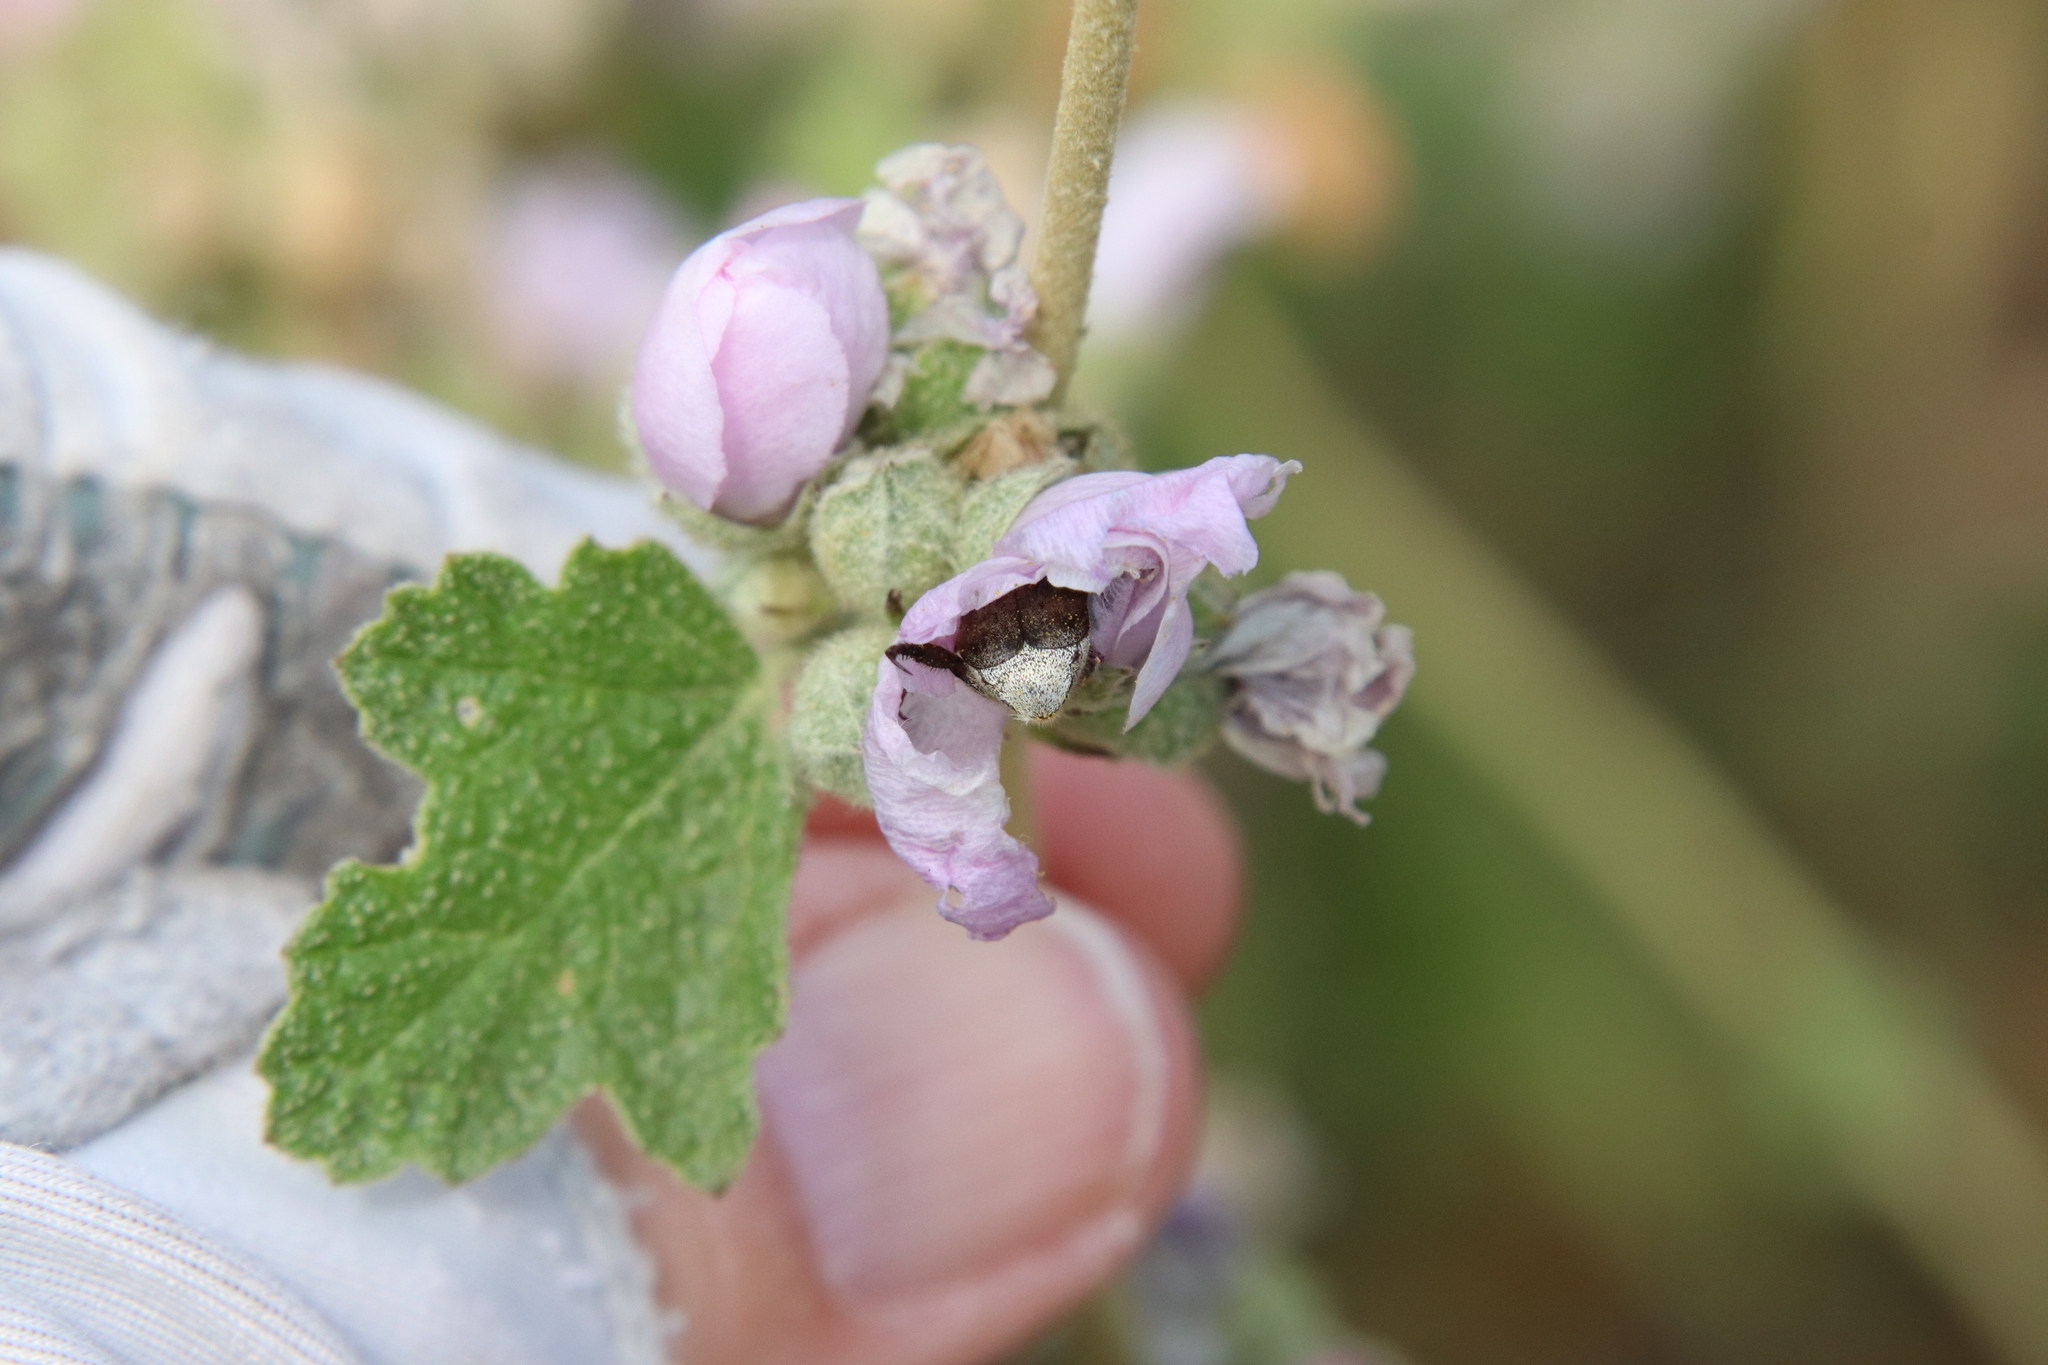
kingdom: Animalia
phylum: Arthropoda
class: Insecta
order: Coleoptera
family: Scarabaeidae
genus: Hoplia
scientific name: Hoplia callipyge
